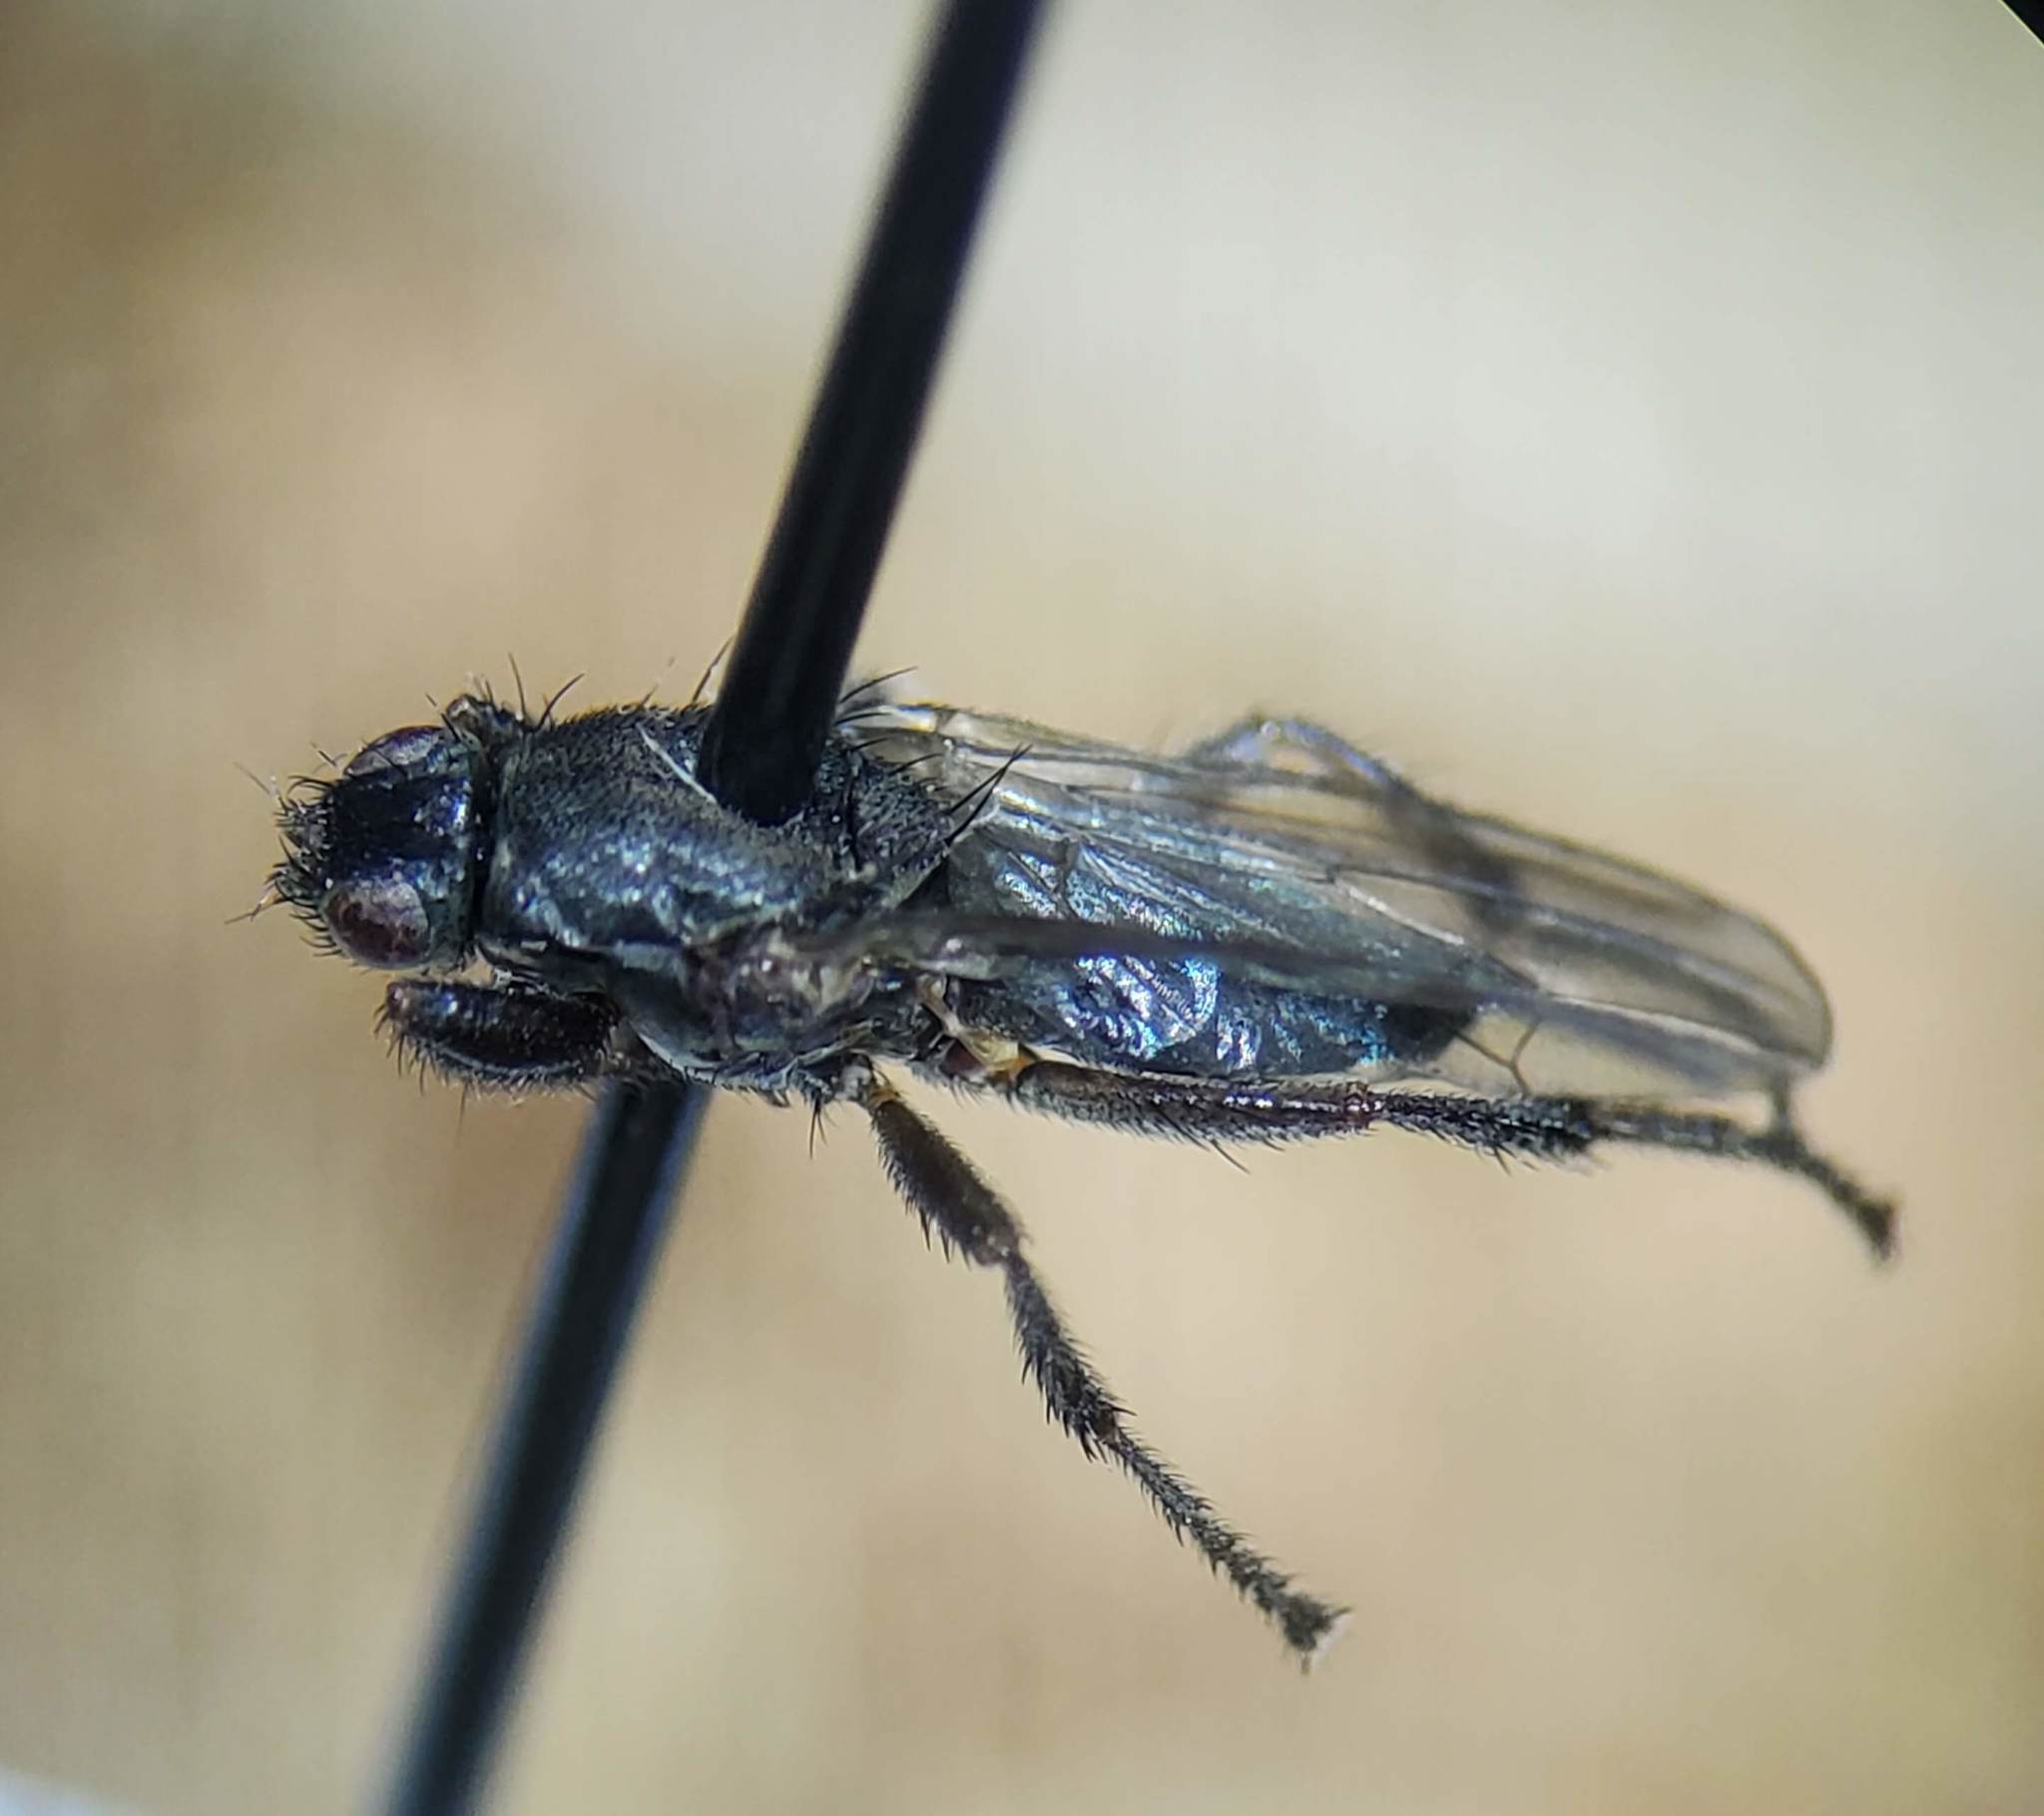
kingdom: Animalia
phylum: Arthropoda
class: Insecta
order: Diptera
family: Coelopidae
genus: Coelopa
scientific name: Coelopa vanduzeei
